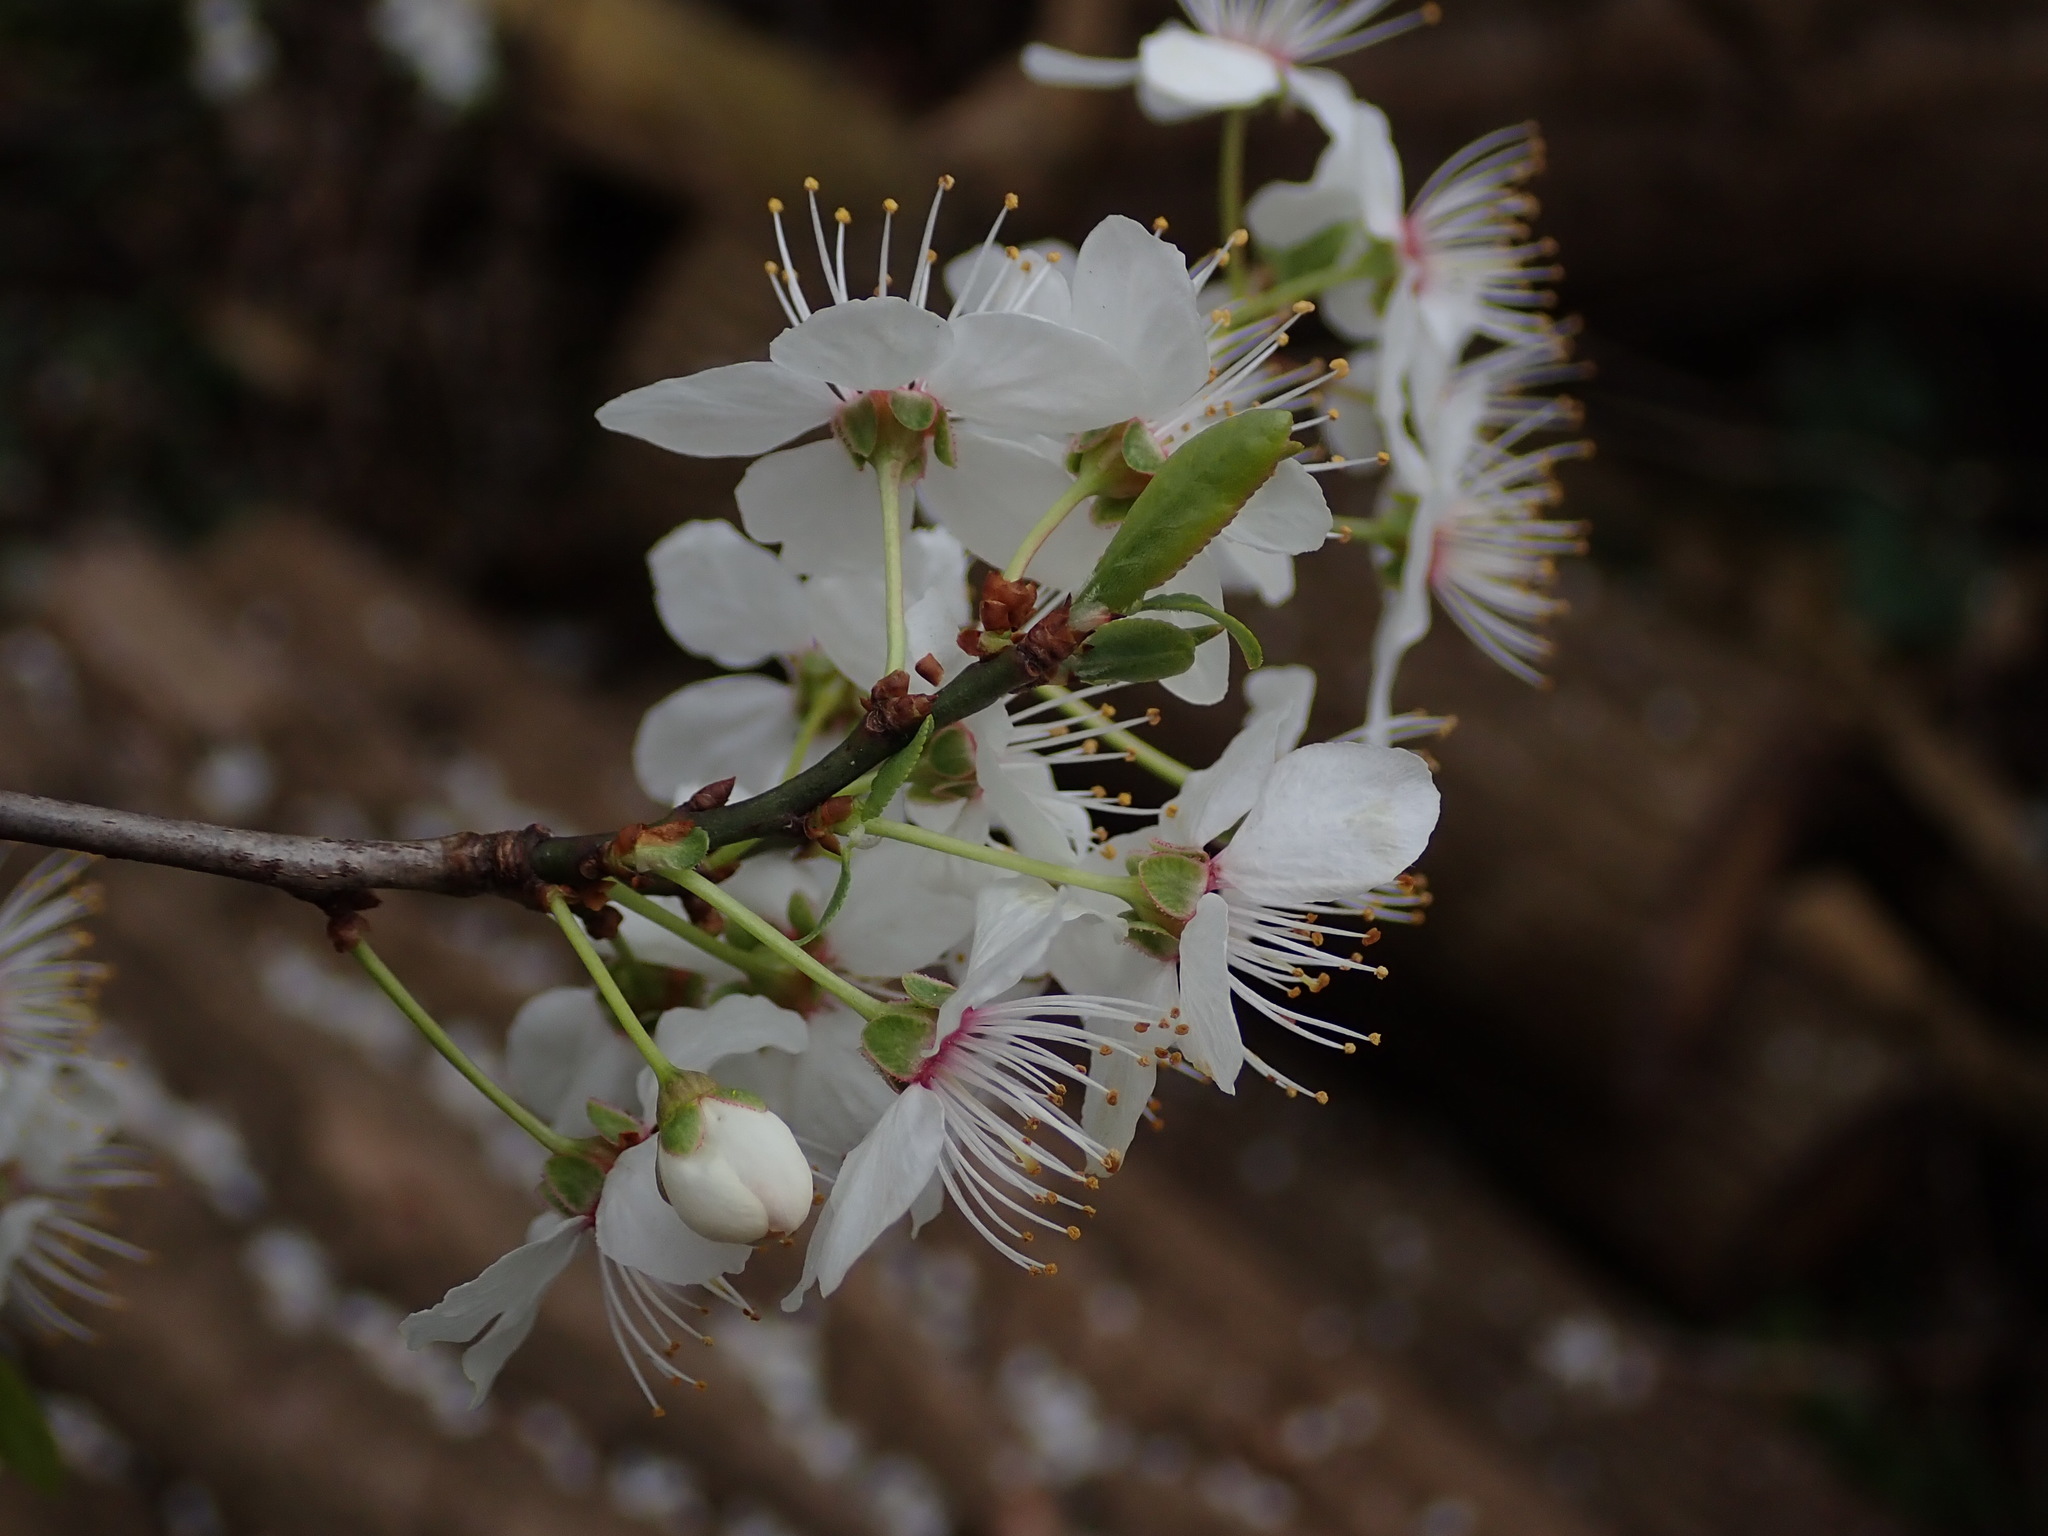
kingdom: Plantae
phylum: Tracheophyta
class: Magnoliopsida
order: Rosales
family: Rosaceae
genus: Prunus
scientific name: Prunus cerasifera
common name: Cherry plum
